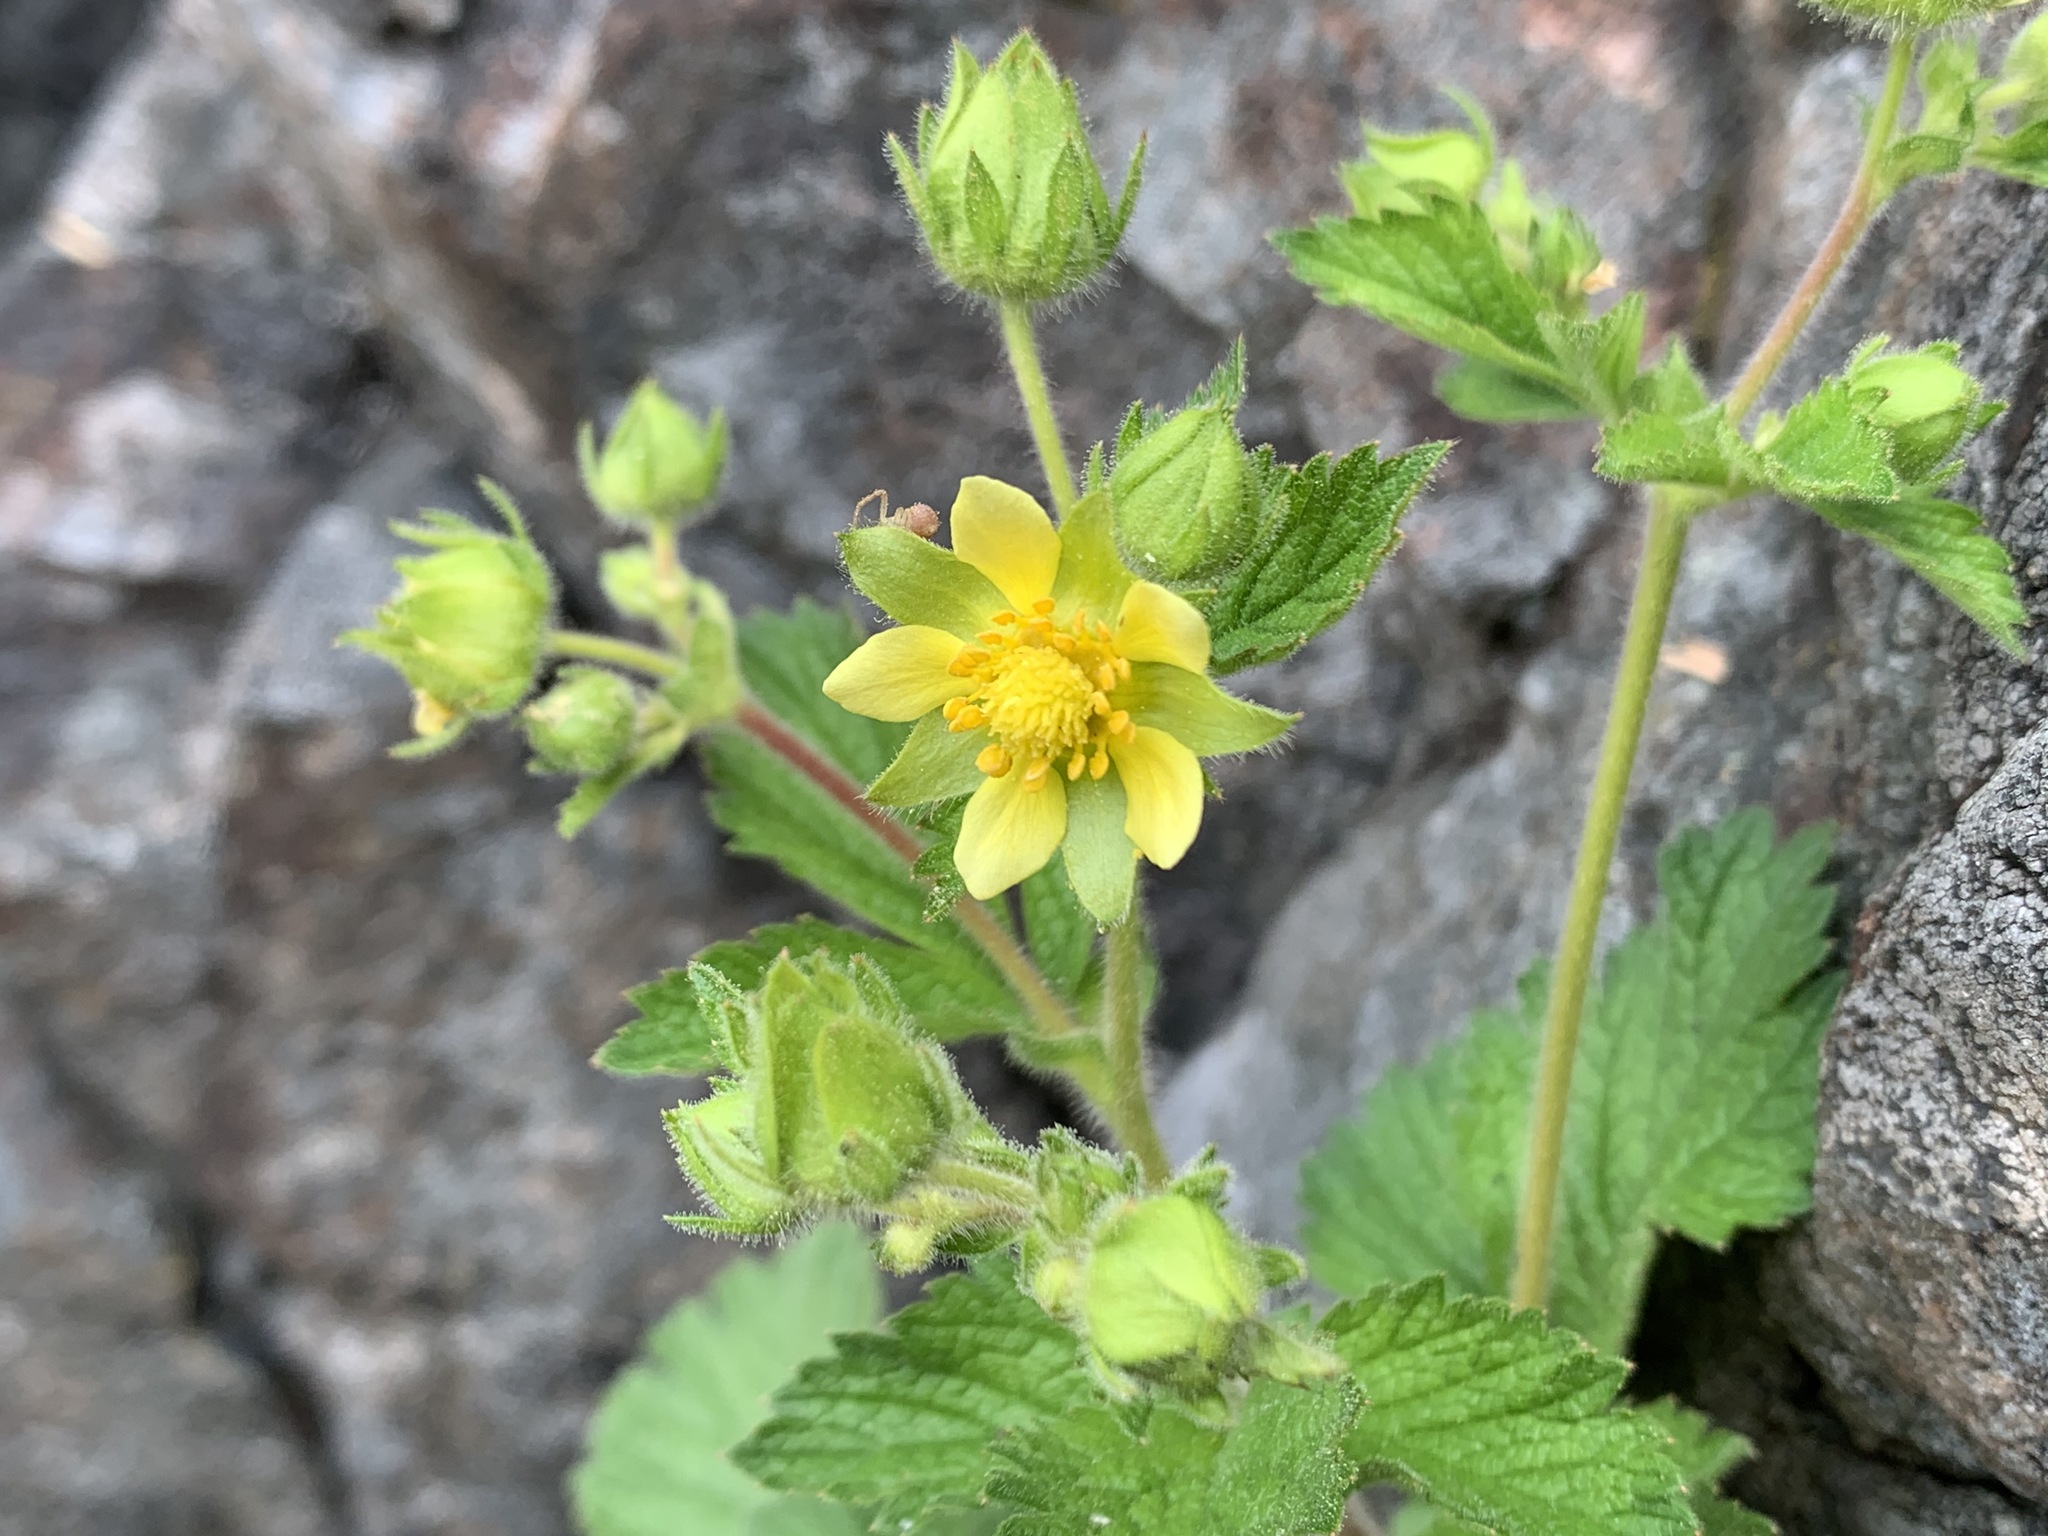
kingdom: Plantae
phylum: Tracheophyta
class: Magnoliopsida
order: Rosales
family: Rosaceae
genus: Drymocallis
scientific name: Drymocallis glandulosa
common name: Sticky cinquefoil
